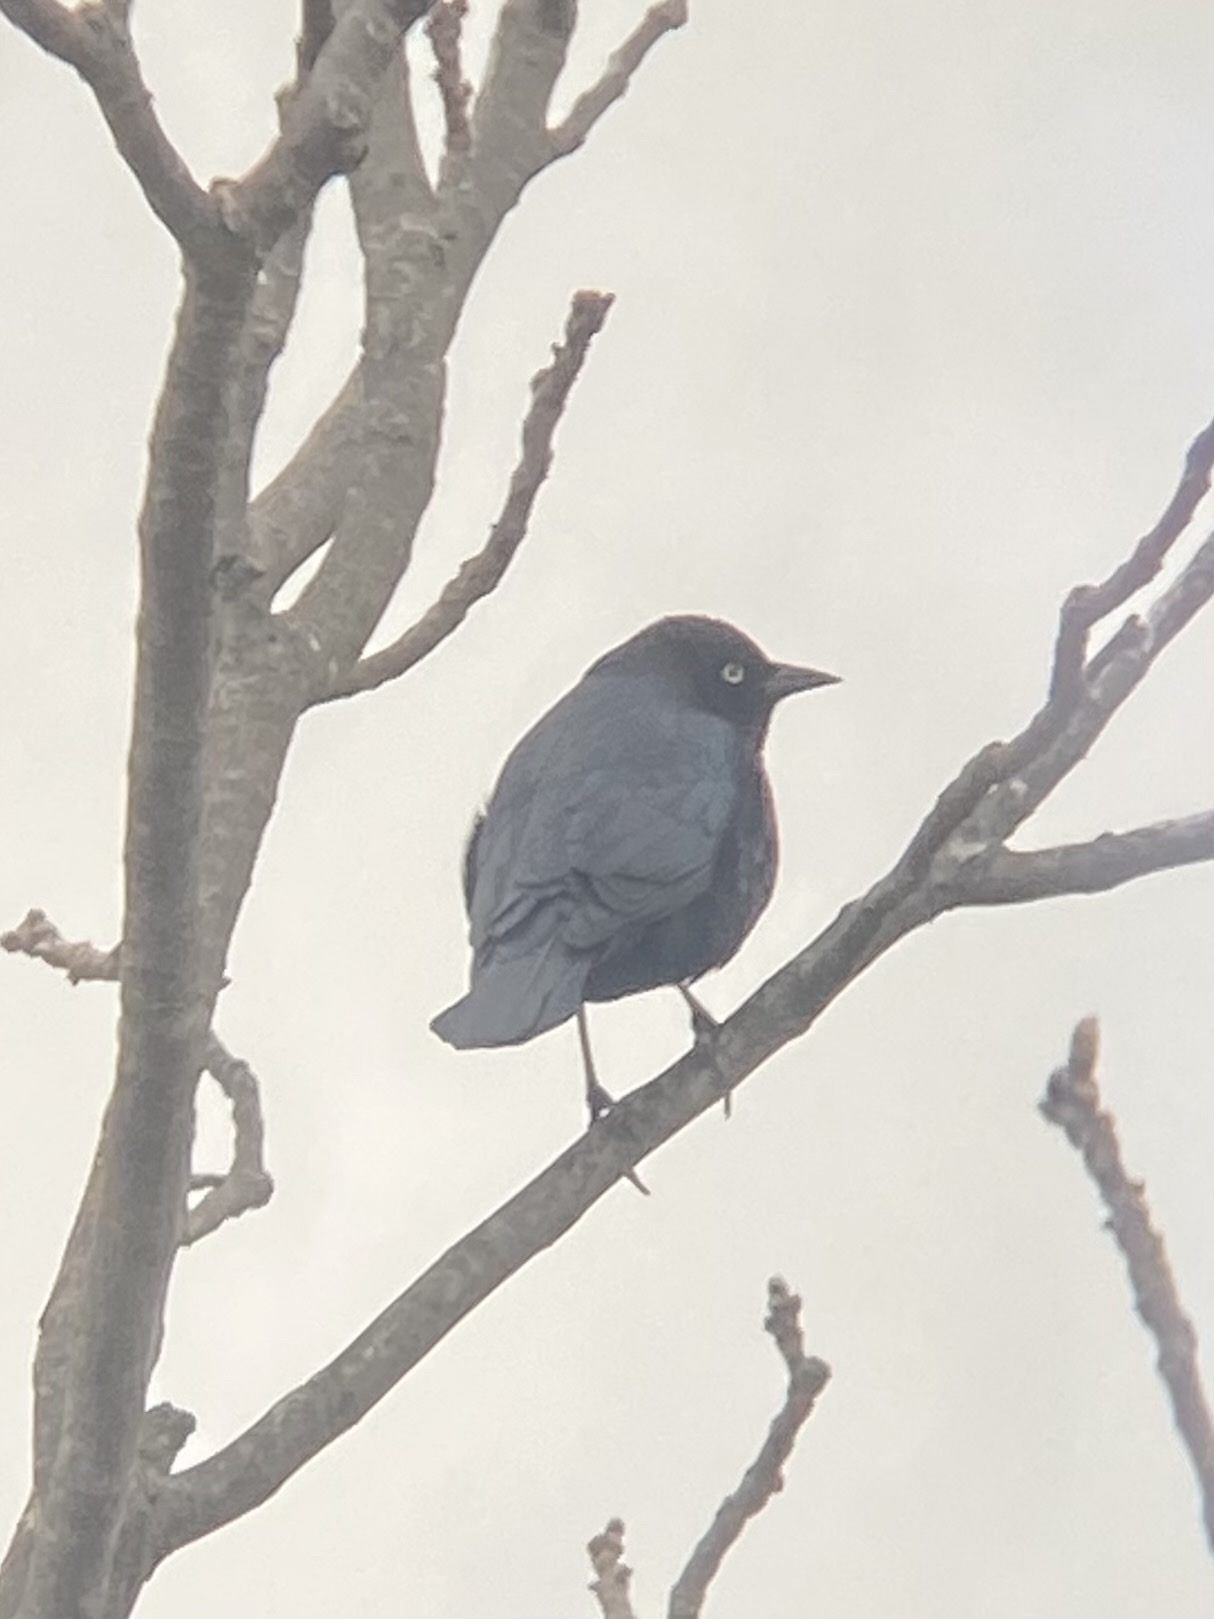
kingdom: Animalia
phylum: Chordata
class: Aves
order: Passeriformes
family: Icteridae
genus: Euphagus
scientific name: Euphagus cyanocephalus
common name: Brewer's blackbird
